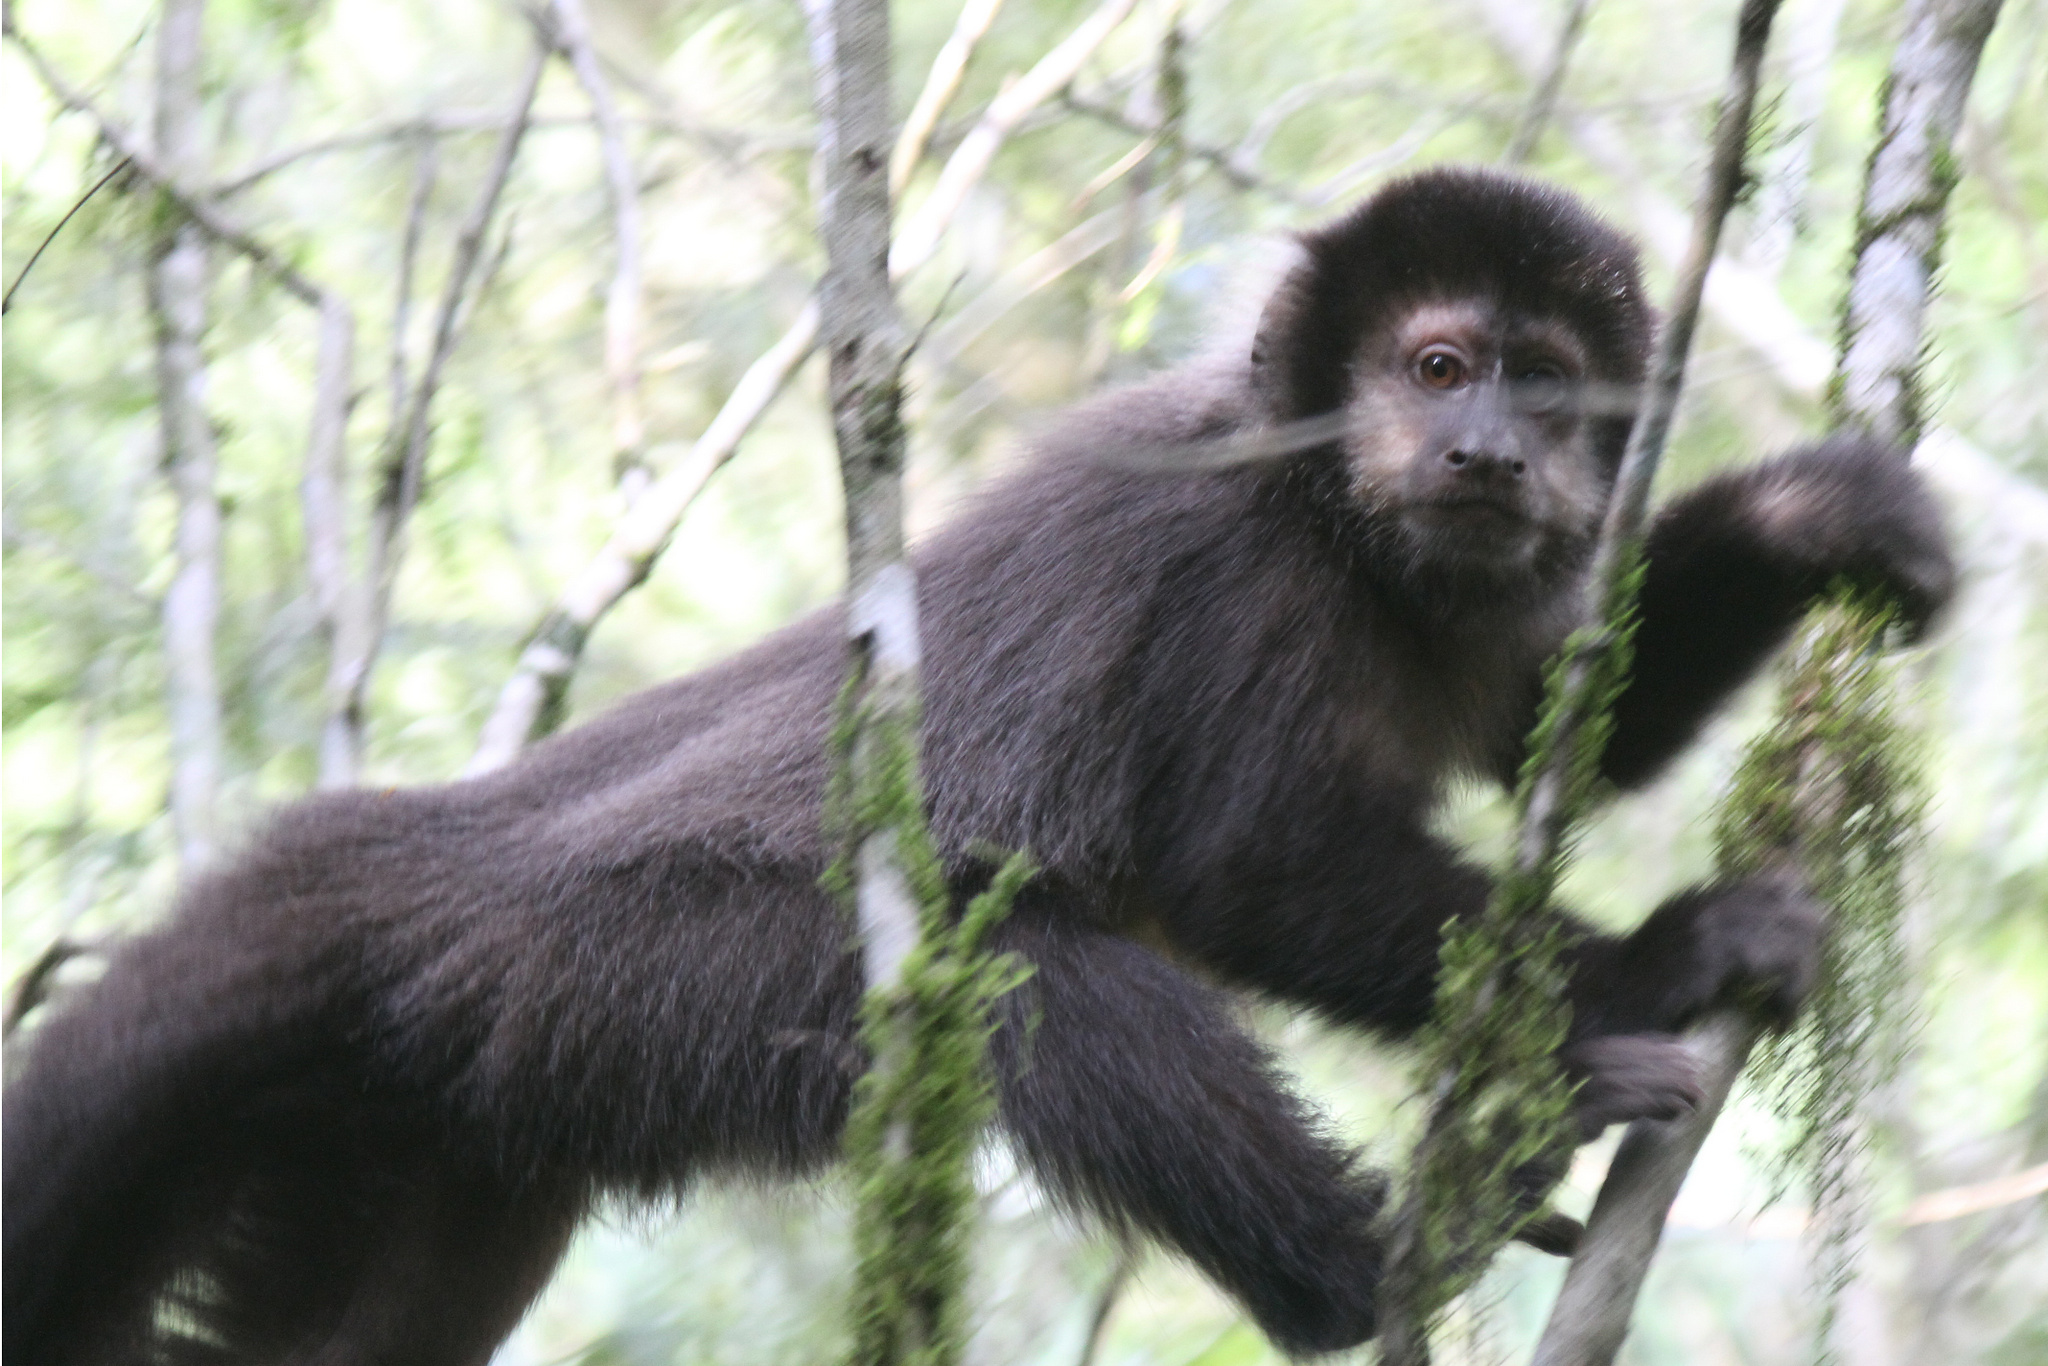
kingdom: Animalia
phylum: Chordata
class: Mammalia
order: Primates
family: Cebidae
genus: Sapajus
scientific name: Sapajus nigritus
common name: Black capuchin
